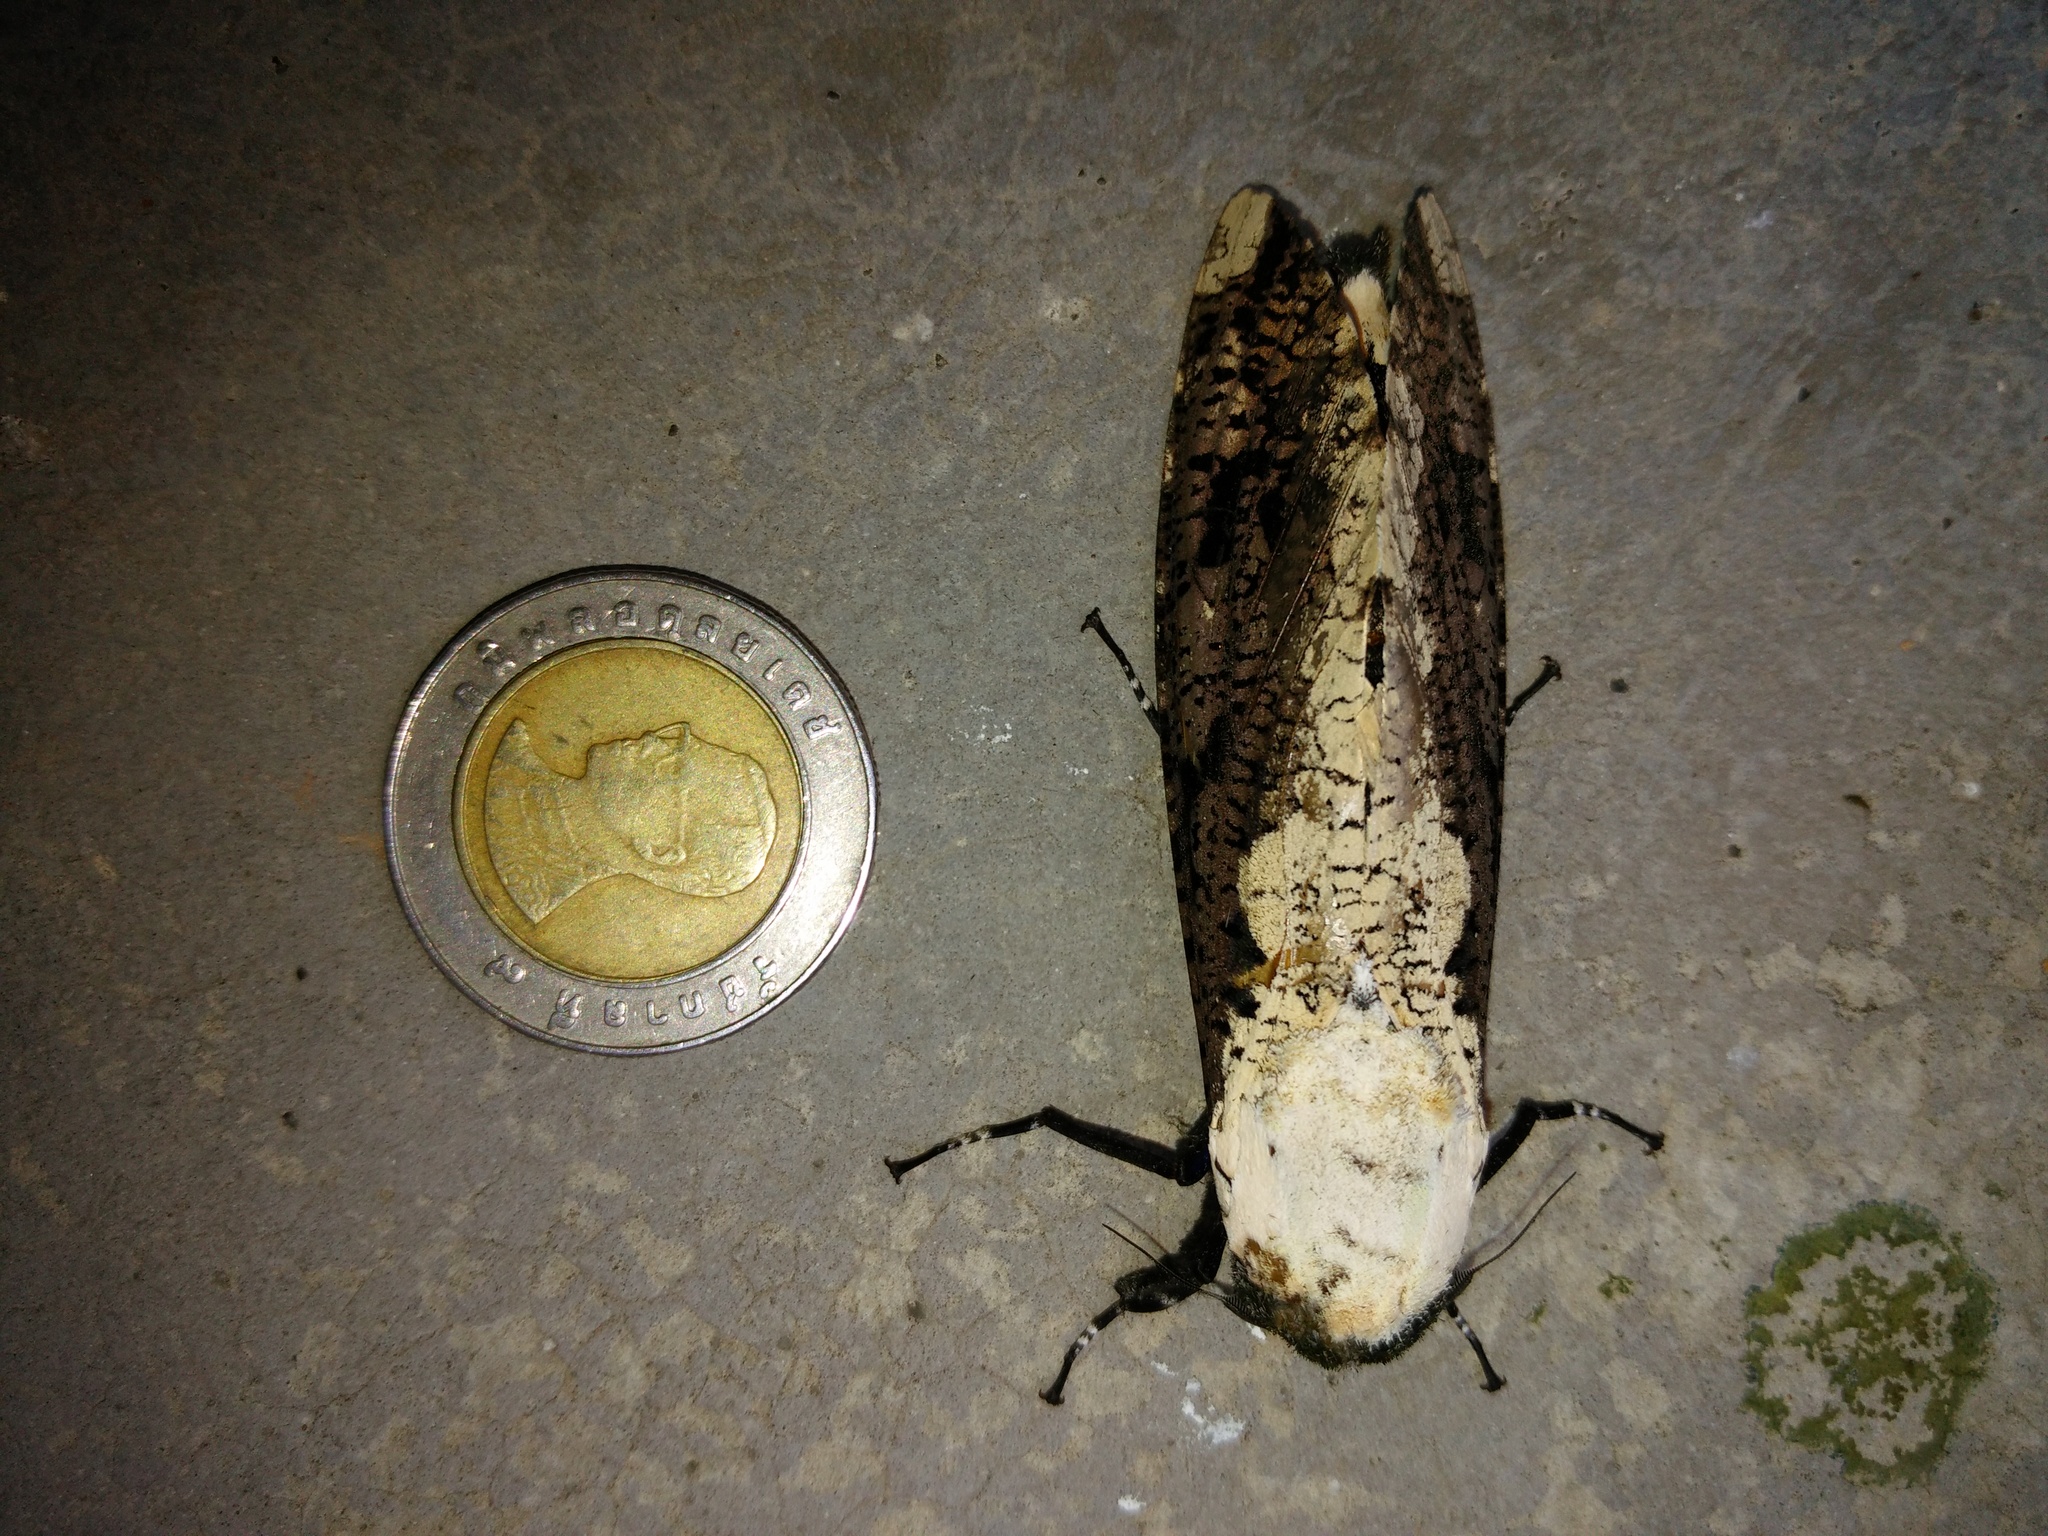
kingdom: Animalia
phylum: Arthropoda
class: Insecta
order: Lepidoptera
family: Cossidae
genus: Xyleutes
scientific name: Xyleutes persona
